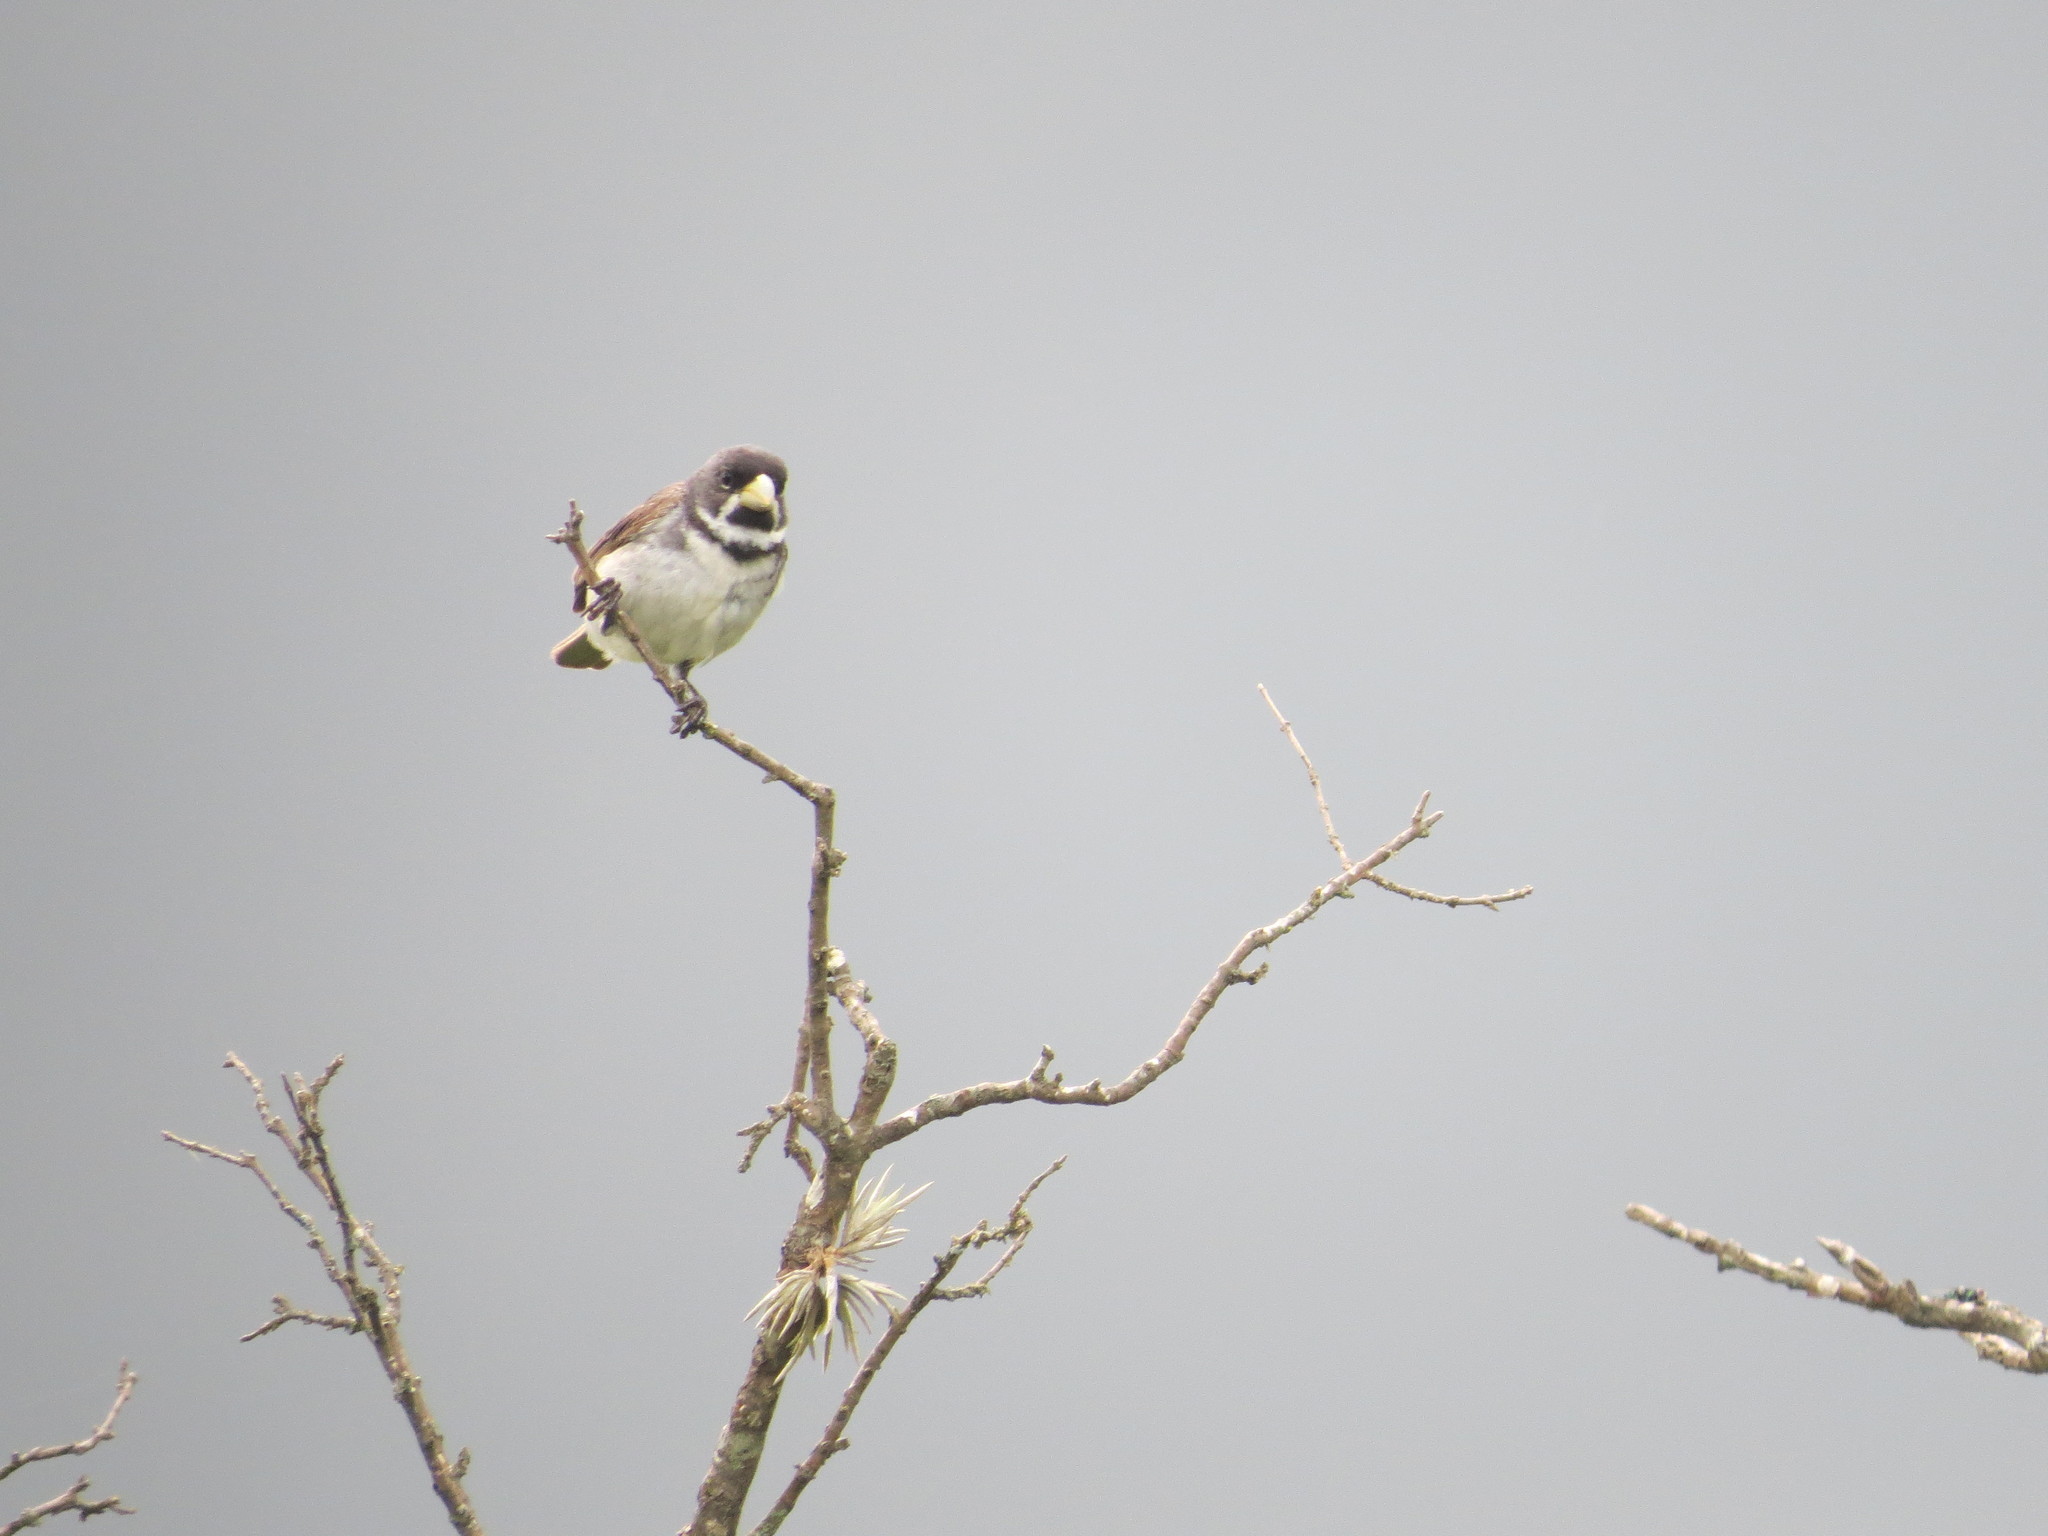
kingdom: Animalia
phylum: Chordata
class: Aves
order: Passeriformes
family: Thraupidae
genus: Sporophila
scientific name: Sporophila caerulescens
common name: Double-collared seedeater
